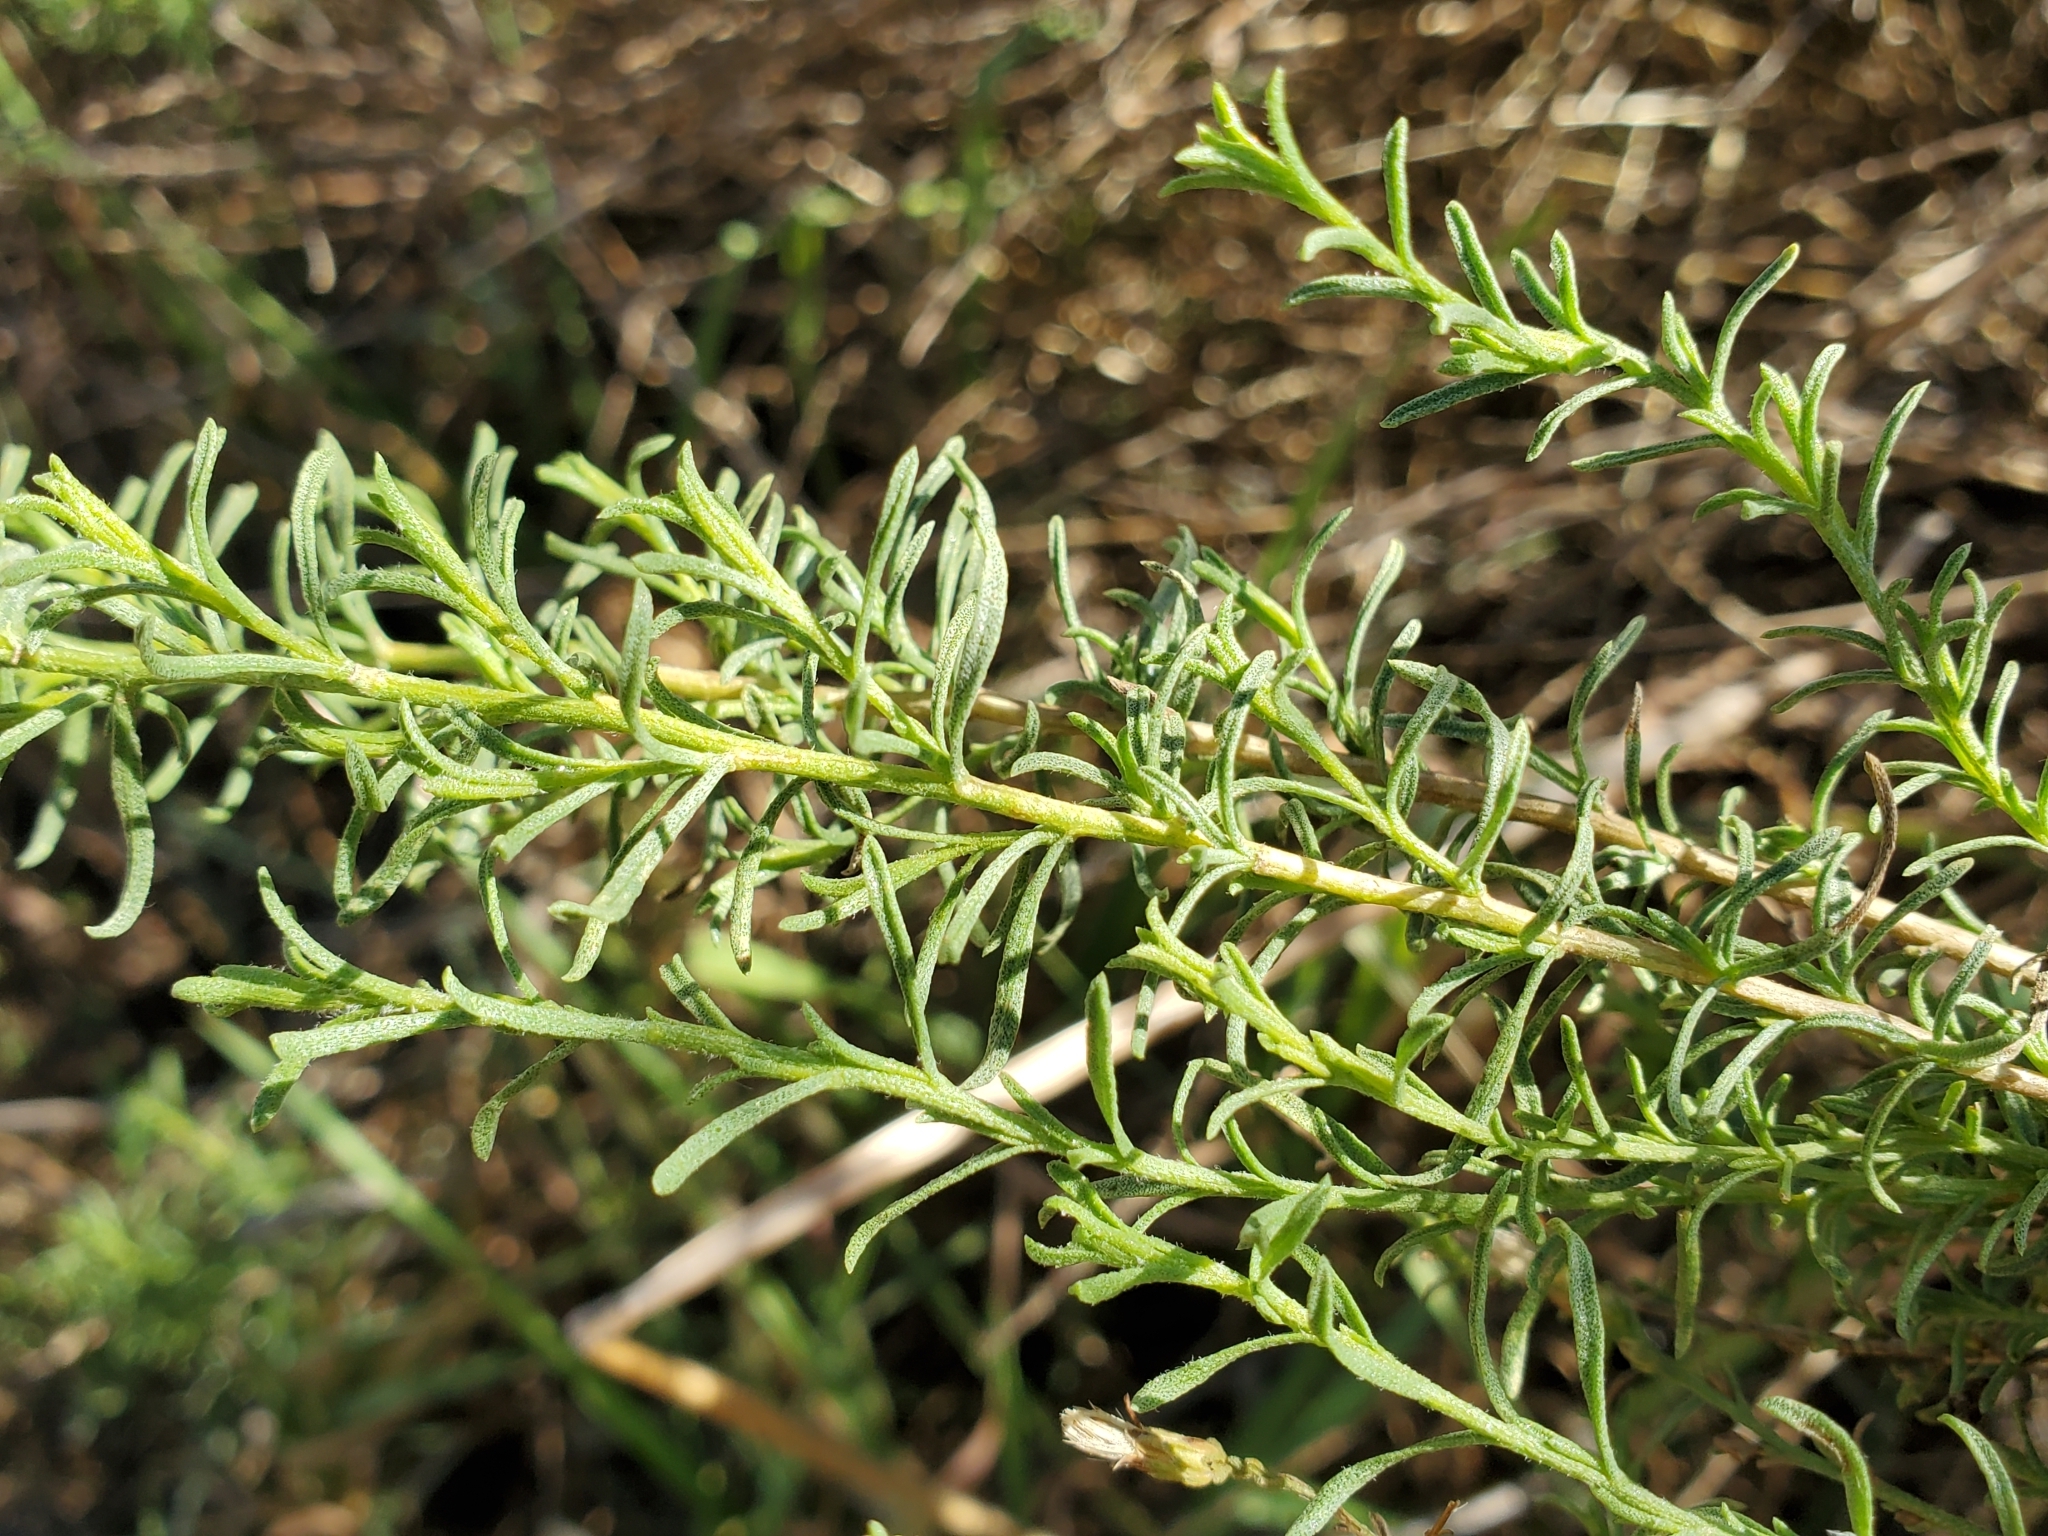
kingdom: Plantae
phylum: Tracheophyta
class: Magnoliopsida
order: Asterales
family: Asteraceae
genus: Ericameria
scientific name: Ericameria palmeri
